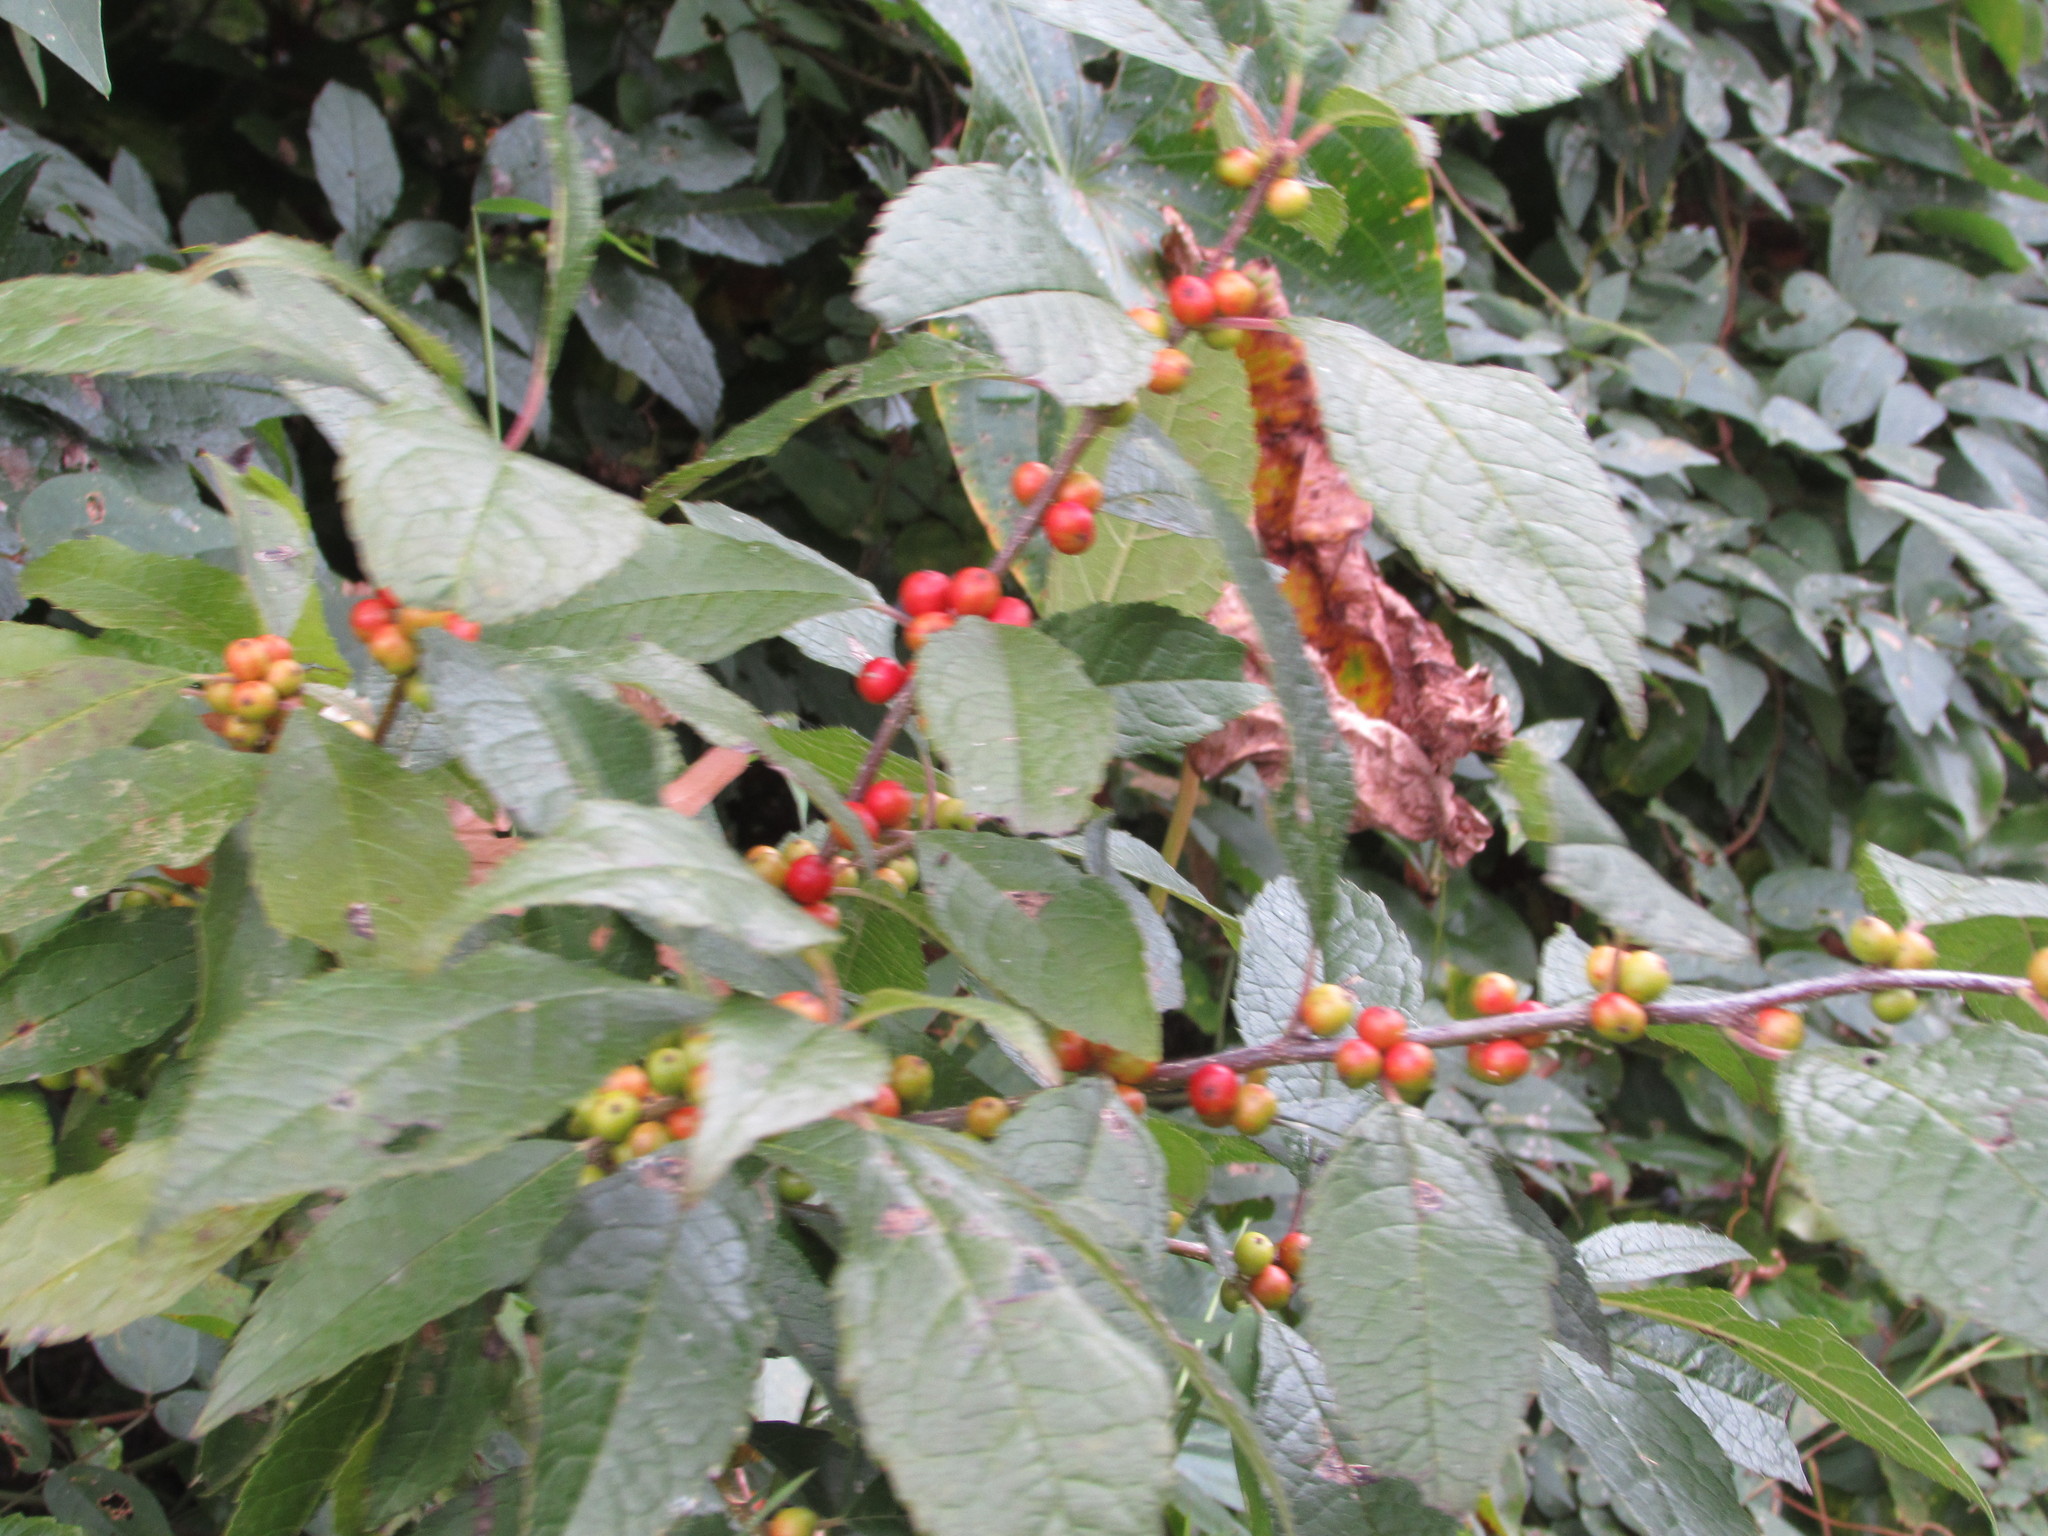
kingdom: Plantae
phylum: Tracheophyta
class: Magnoliopsida
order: Aquifoliales
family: Aquifoliaceae
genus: Ilex
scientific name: Ilex verticillata
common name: Virginia winterberry
